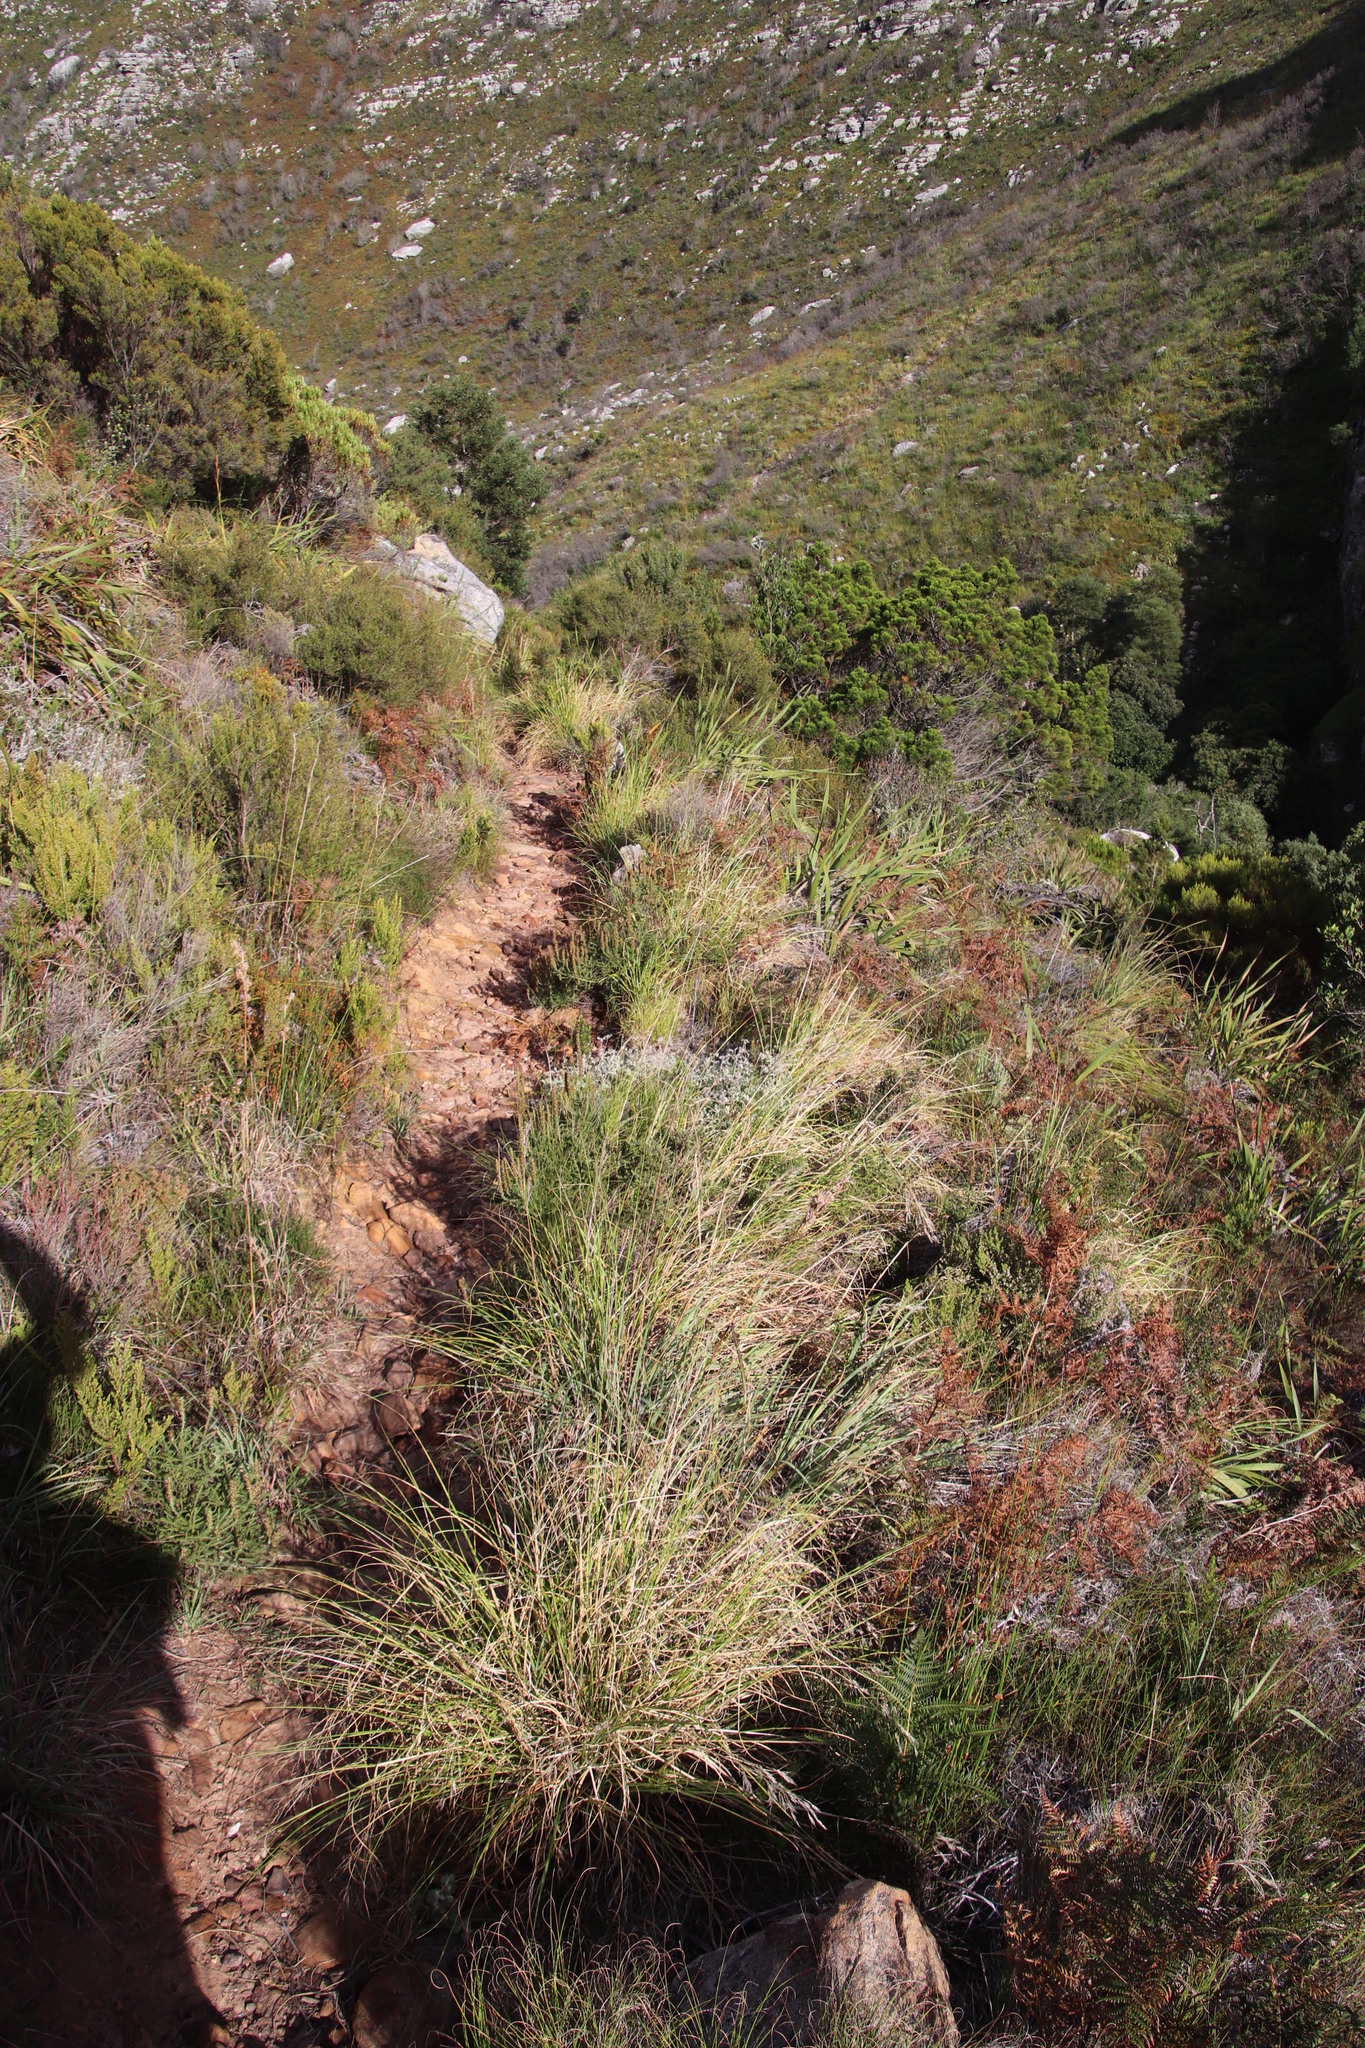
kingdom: Plantae
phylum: Tracheophyta
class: Magnoliopsida
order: Asterales
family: Asteraceae
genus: Seriphium
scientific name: Seriphium cinereum
